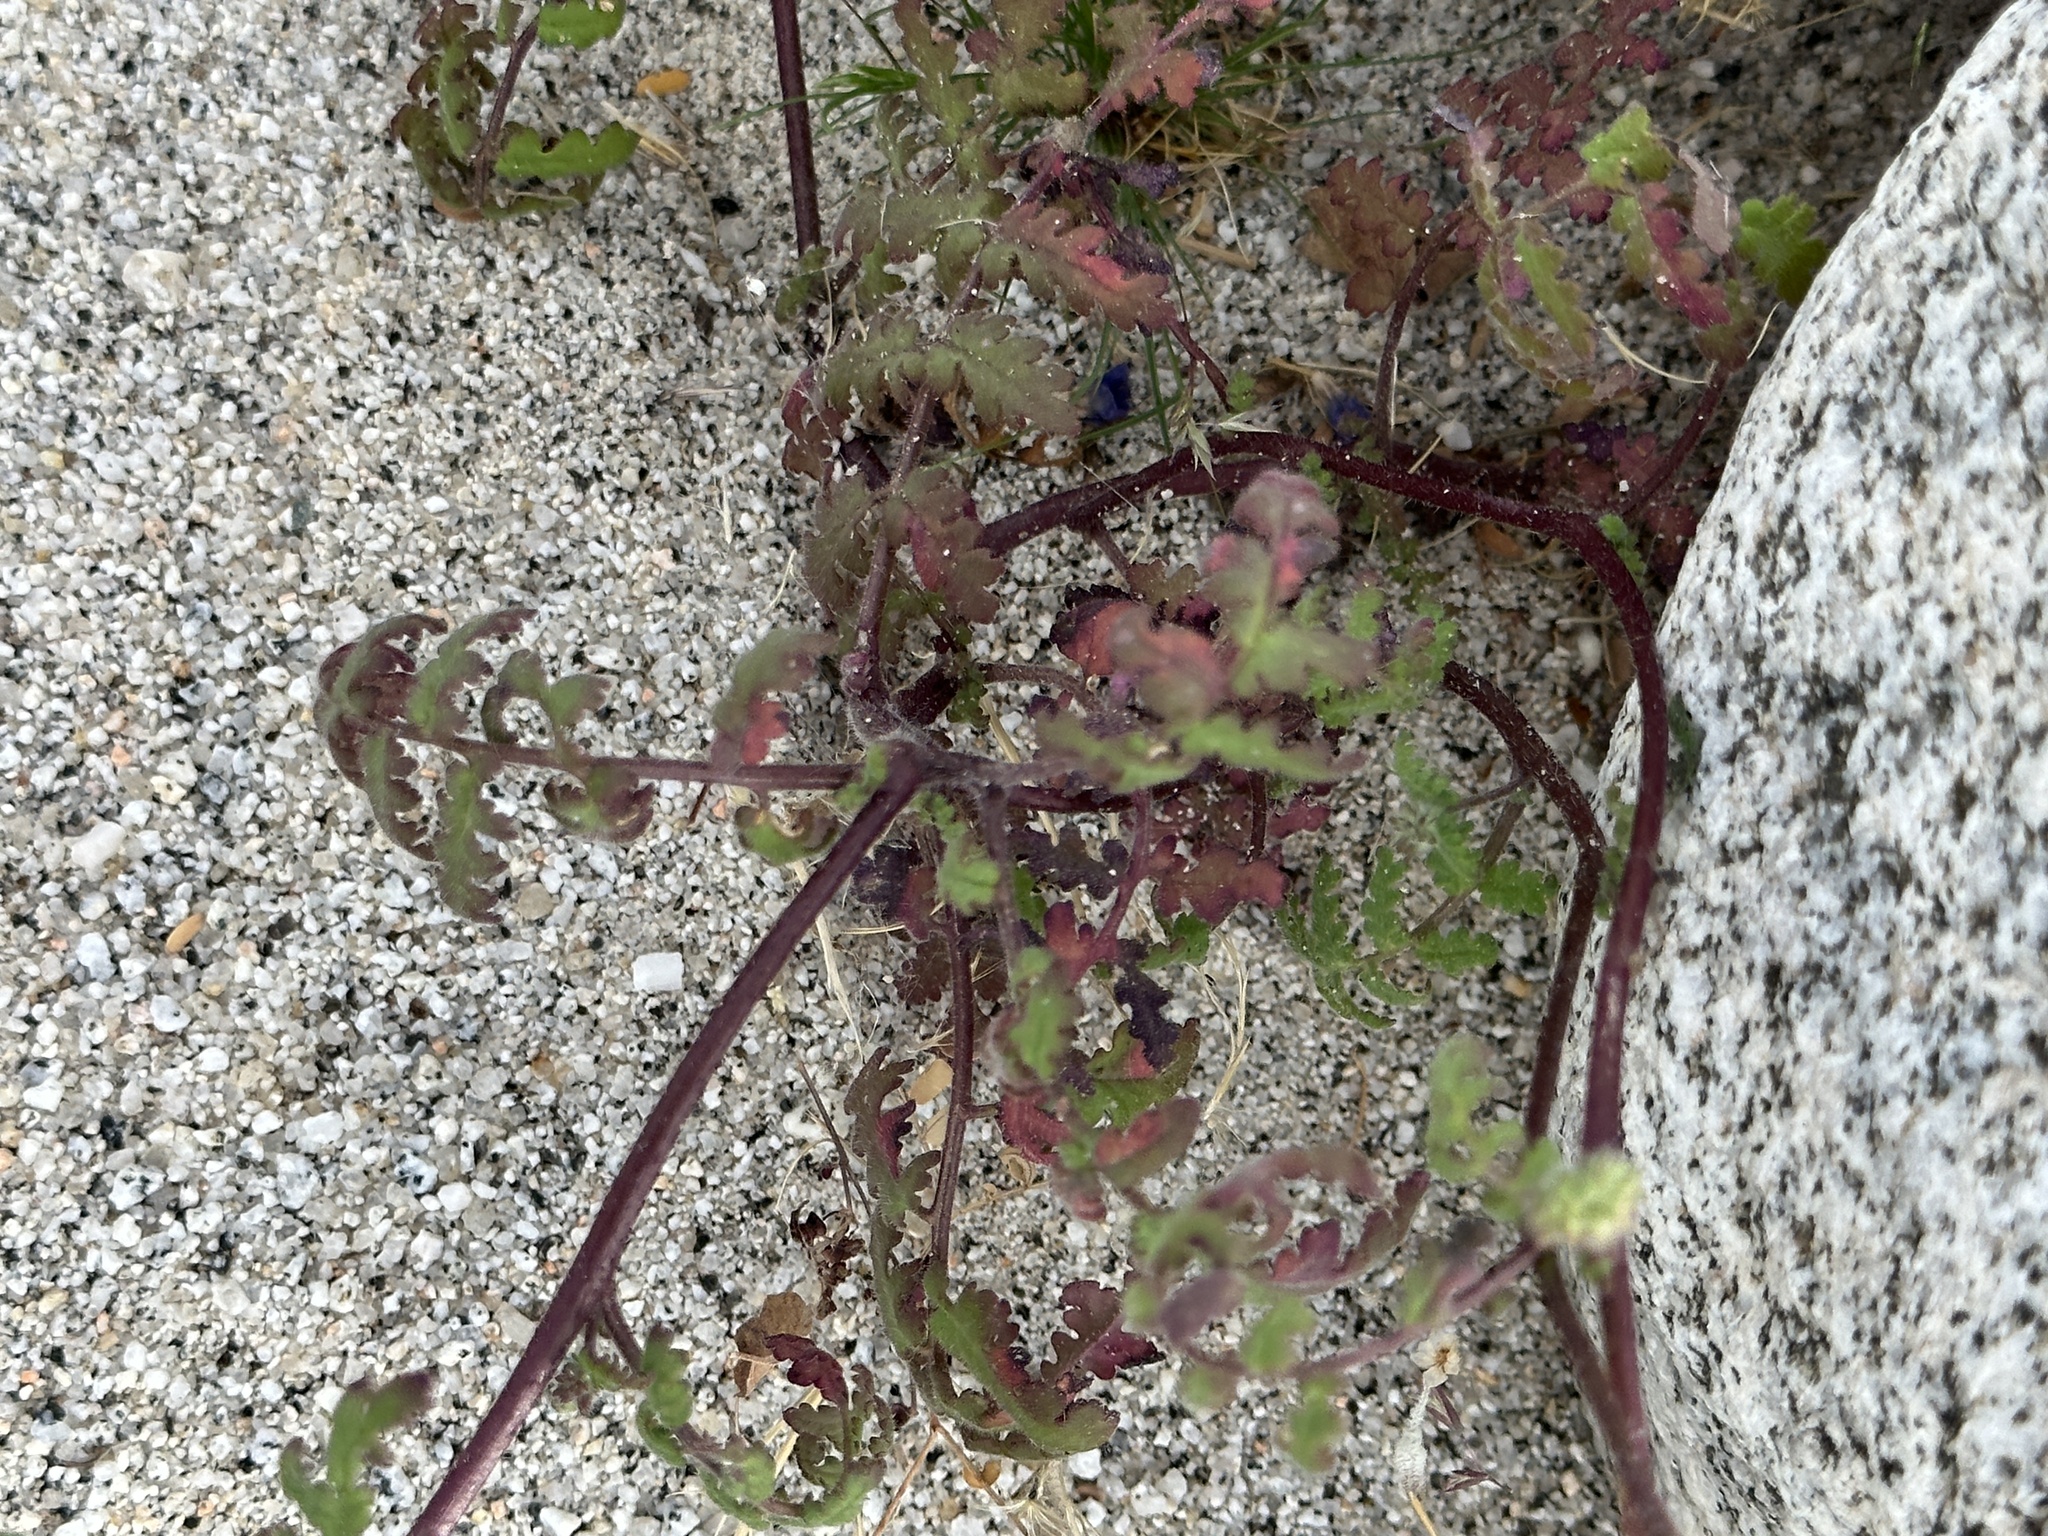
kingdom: Plantae
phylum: Tracheophyta
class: Magnoliopsida
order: Boraginales
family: Hydrophyllaceae
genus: Phacelia
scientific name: Phacelia distans
